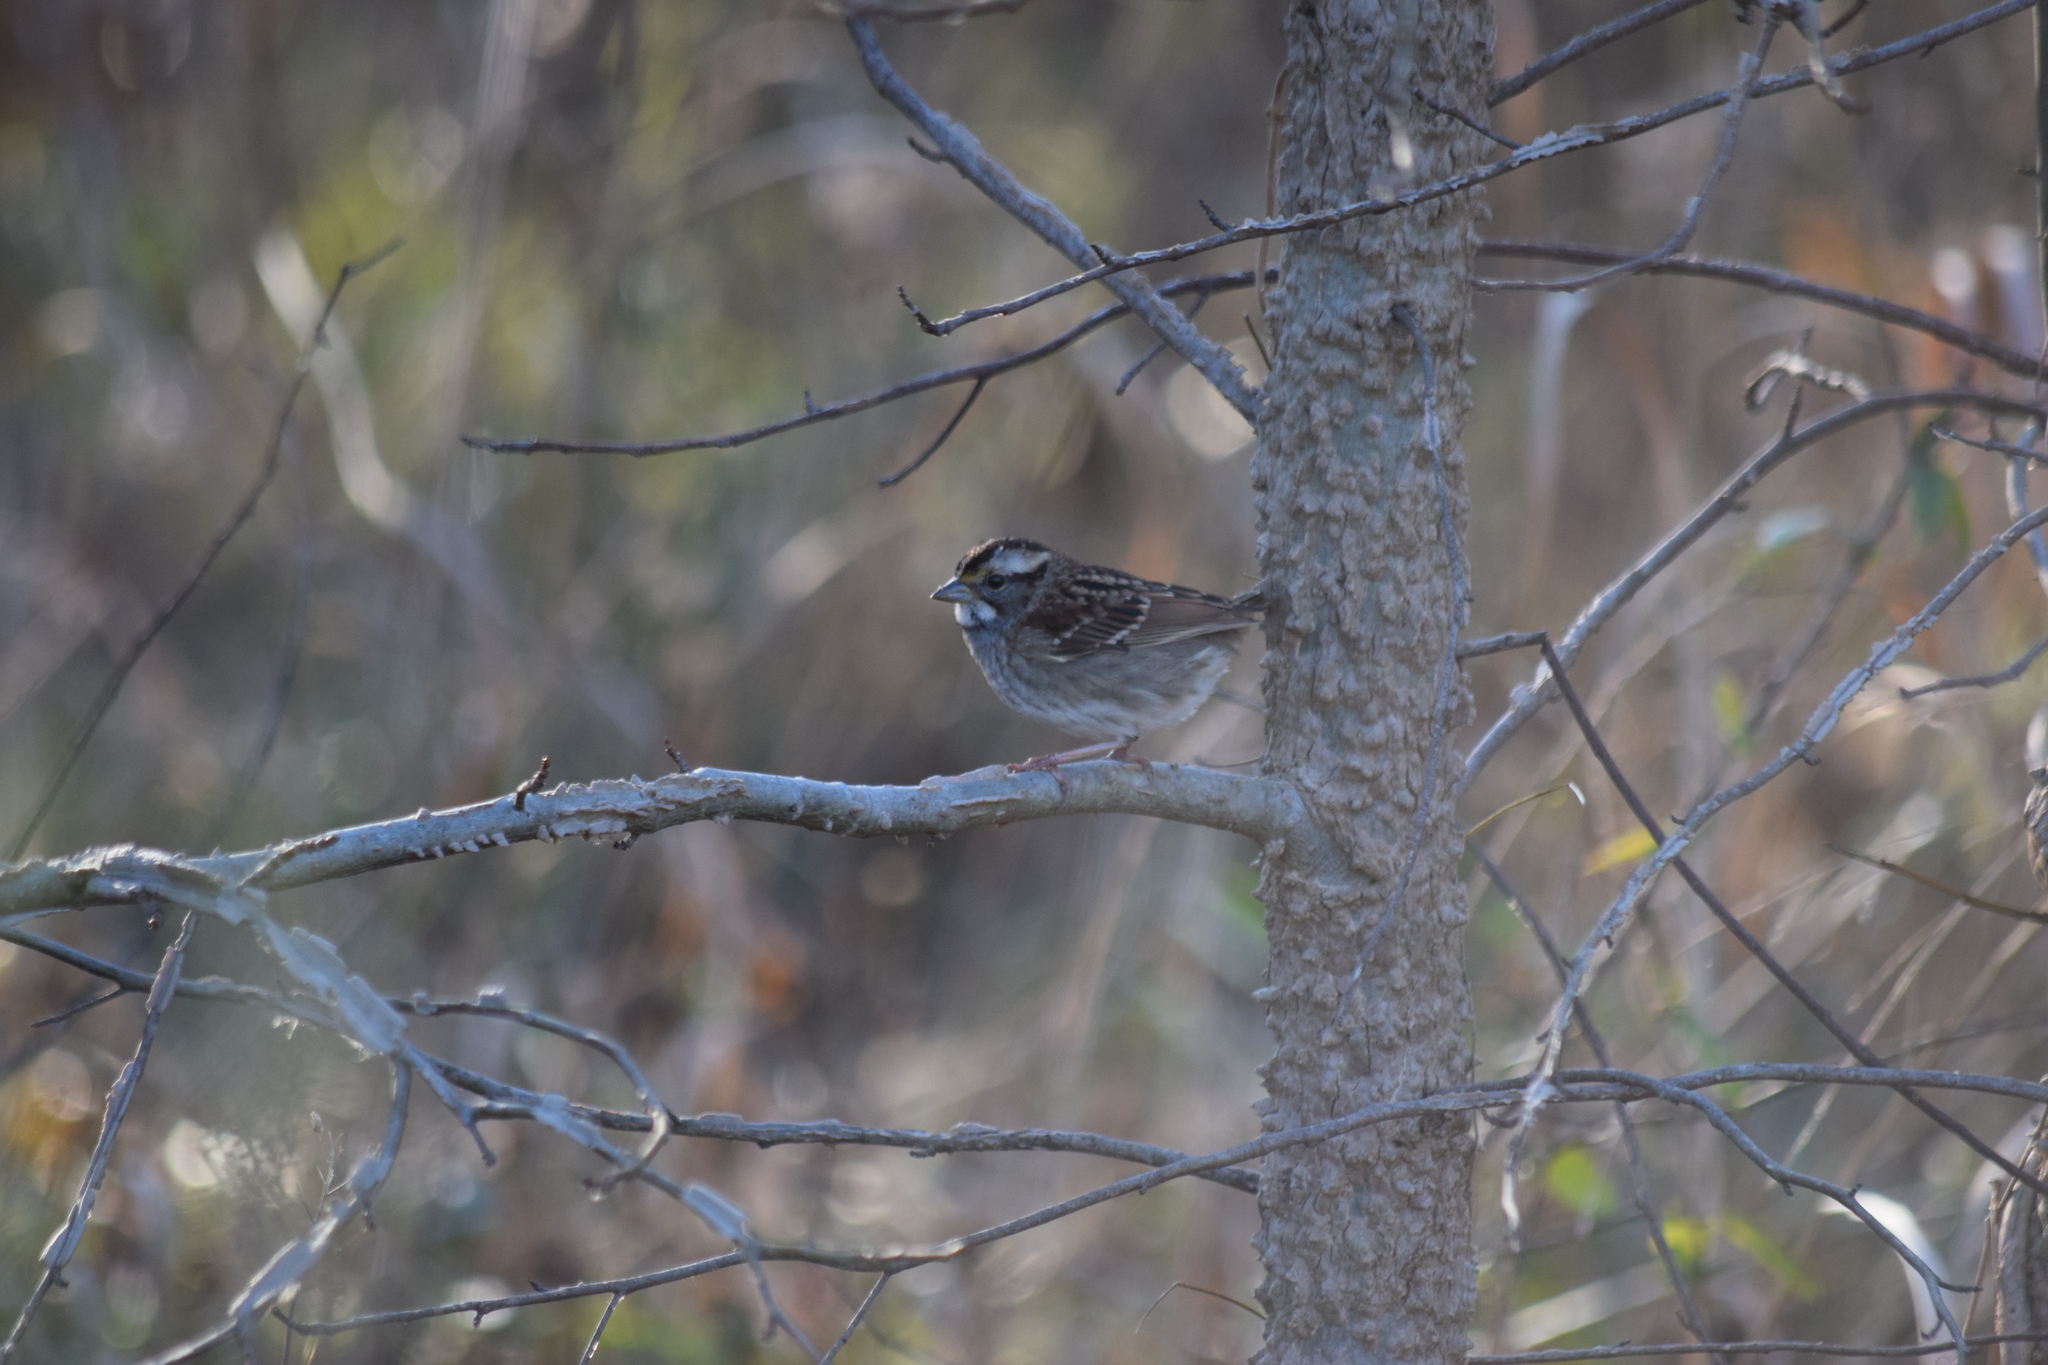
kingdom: Animalia
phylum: Chordata
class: Aves
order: Passeriformes
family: Passerellidae
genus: Zonotrichia
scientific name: Zonotrichia albicollis
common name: White-throated sparrow
